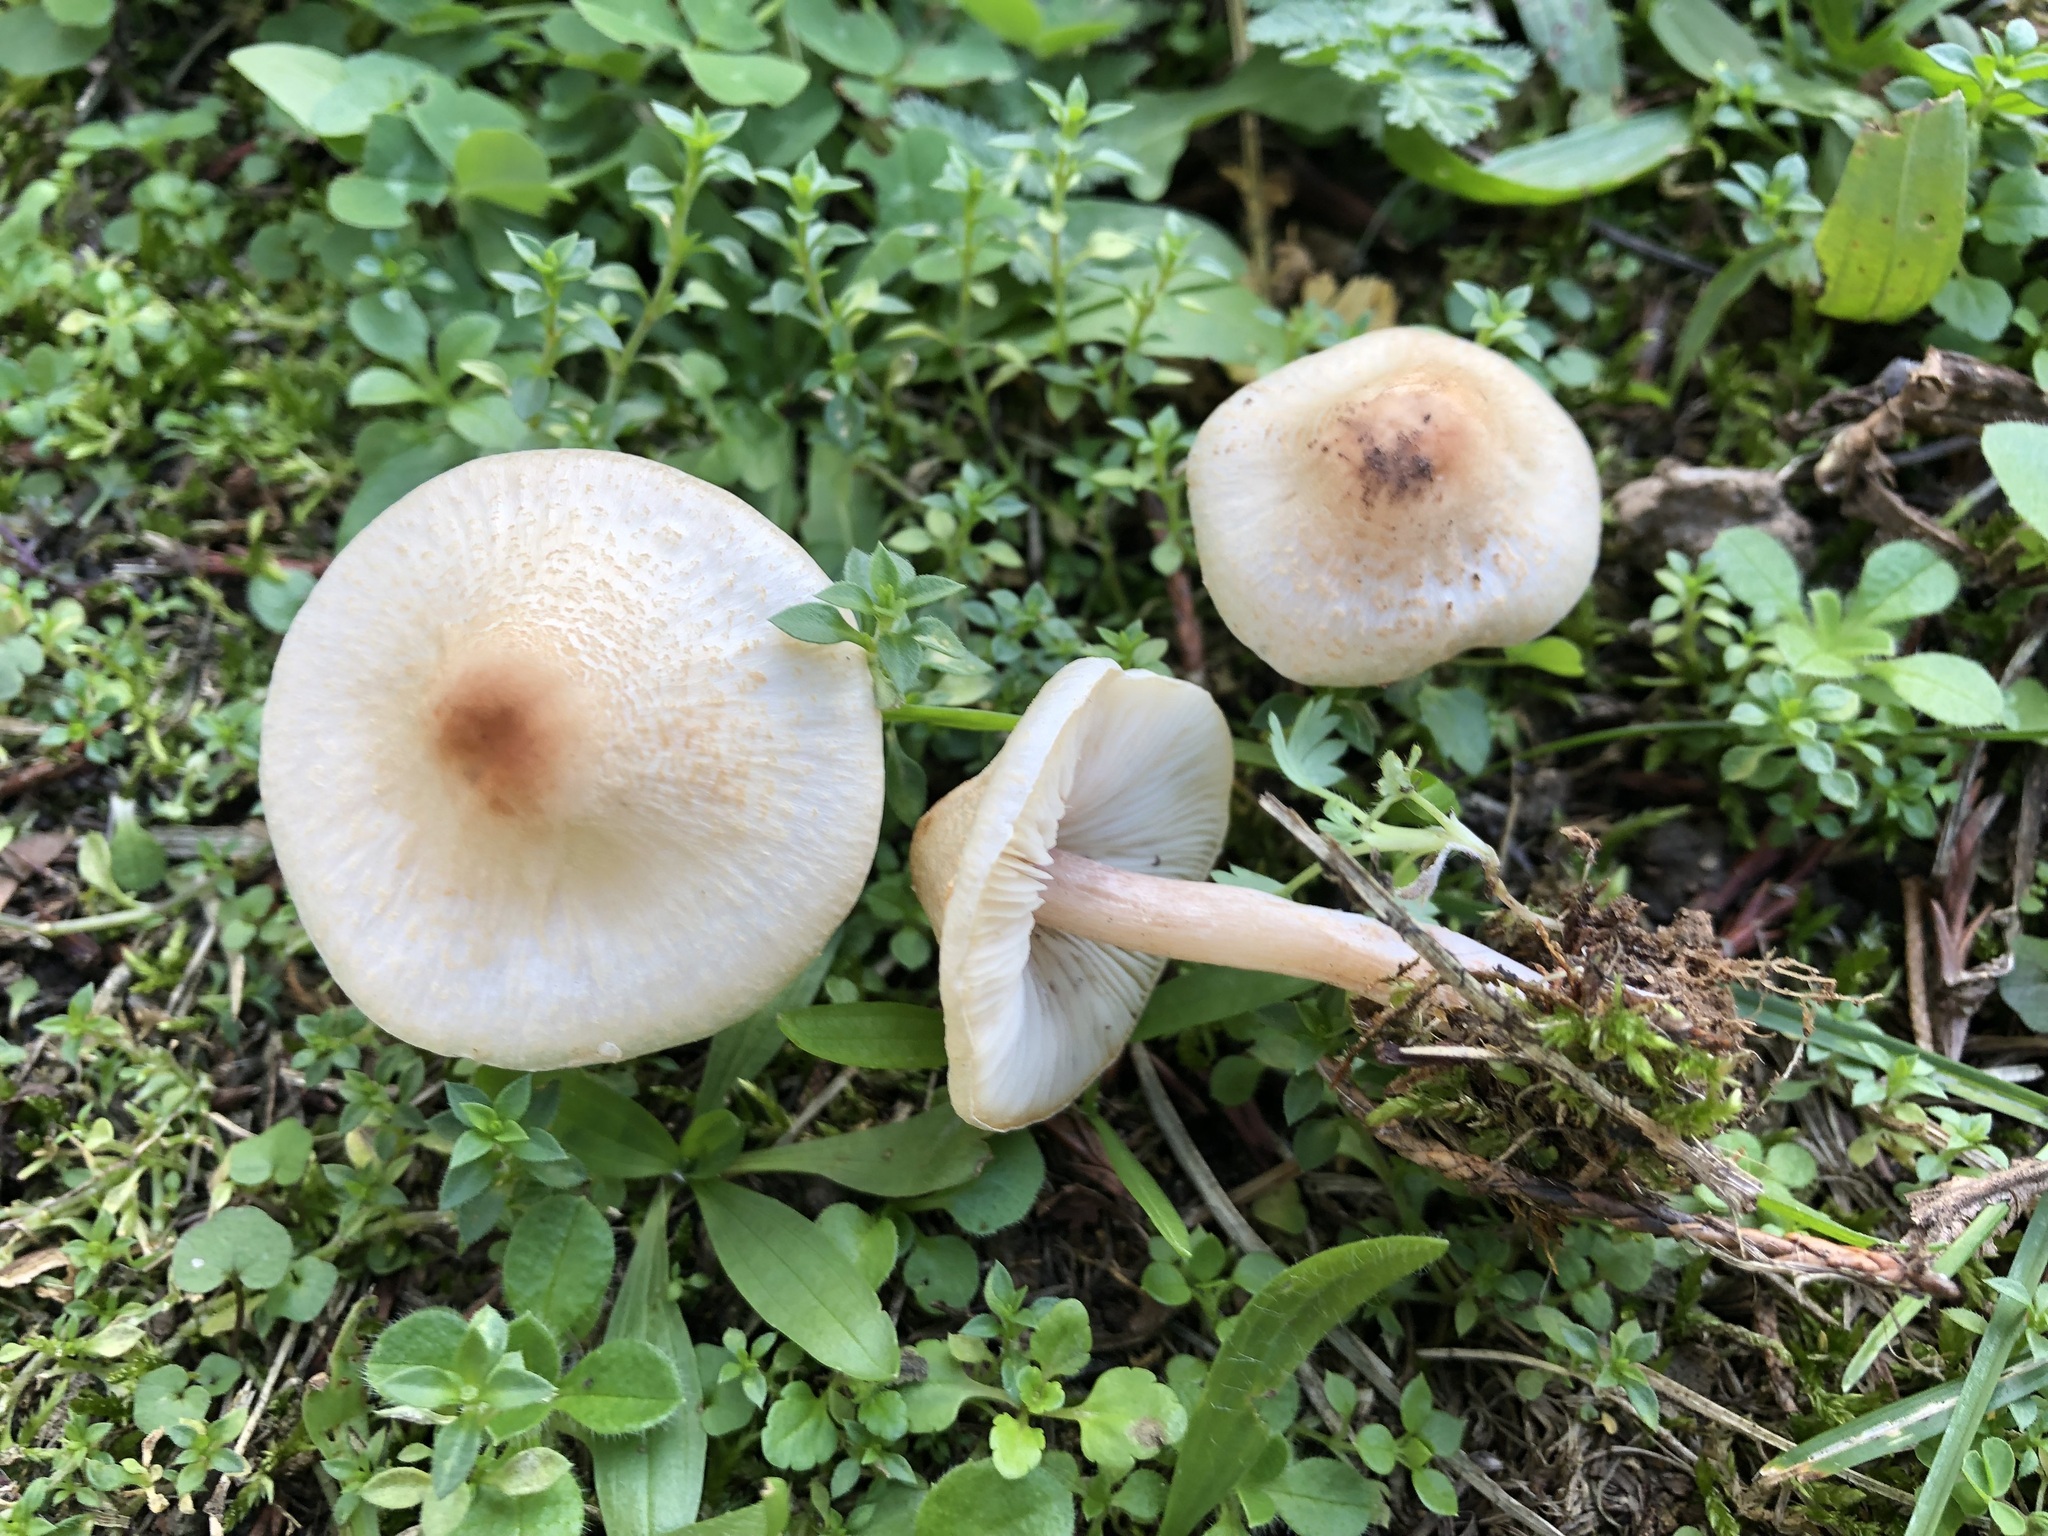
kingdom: Fungi
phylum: Basidiomycota
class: Agaricomycetes
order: Agaricales
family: Agaricaceae
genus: Lepiota
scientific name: Lepiota cristata
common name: Stinking dapperling
